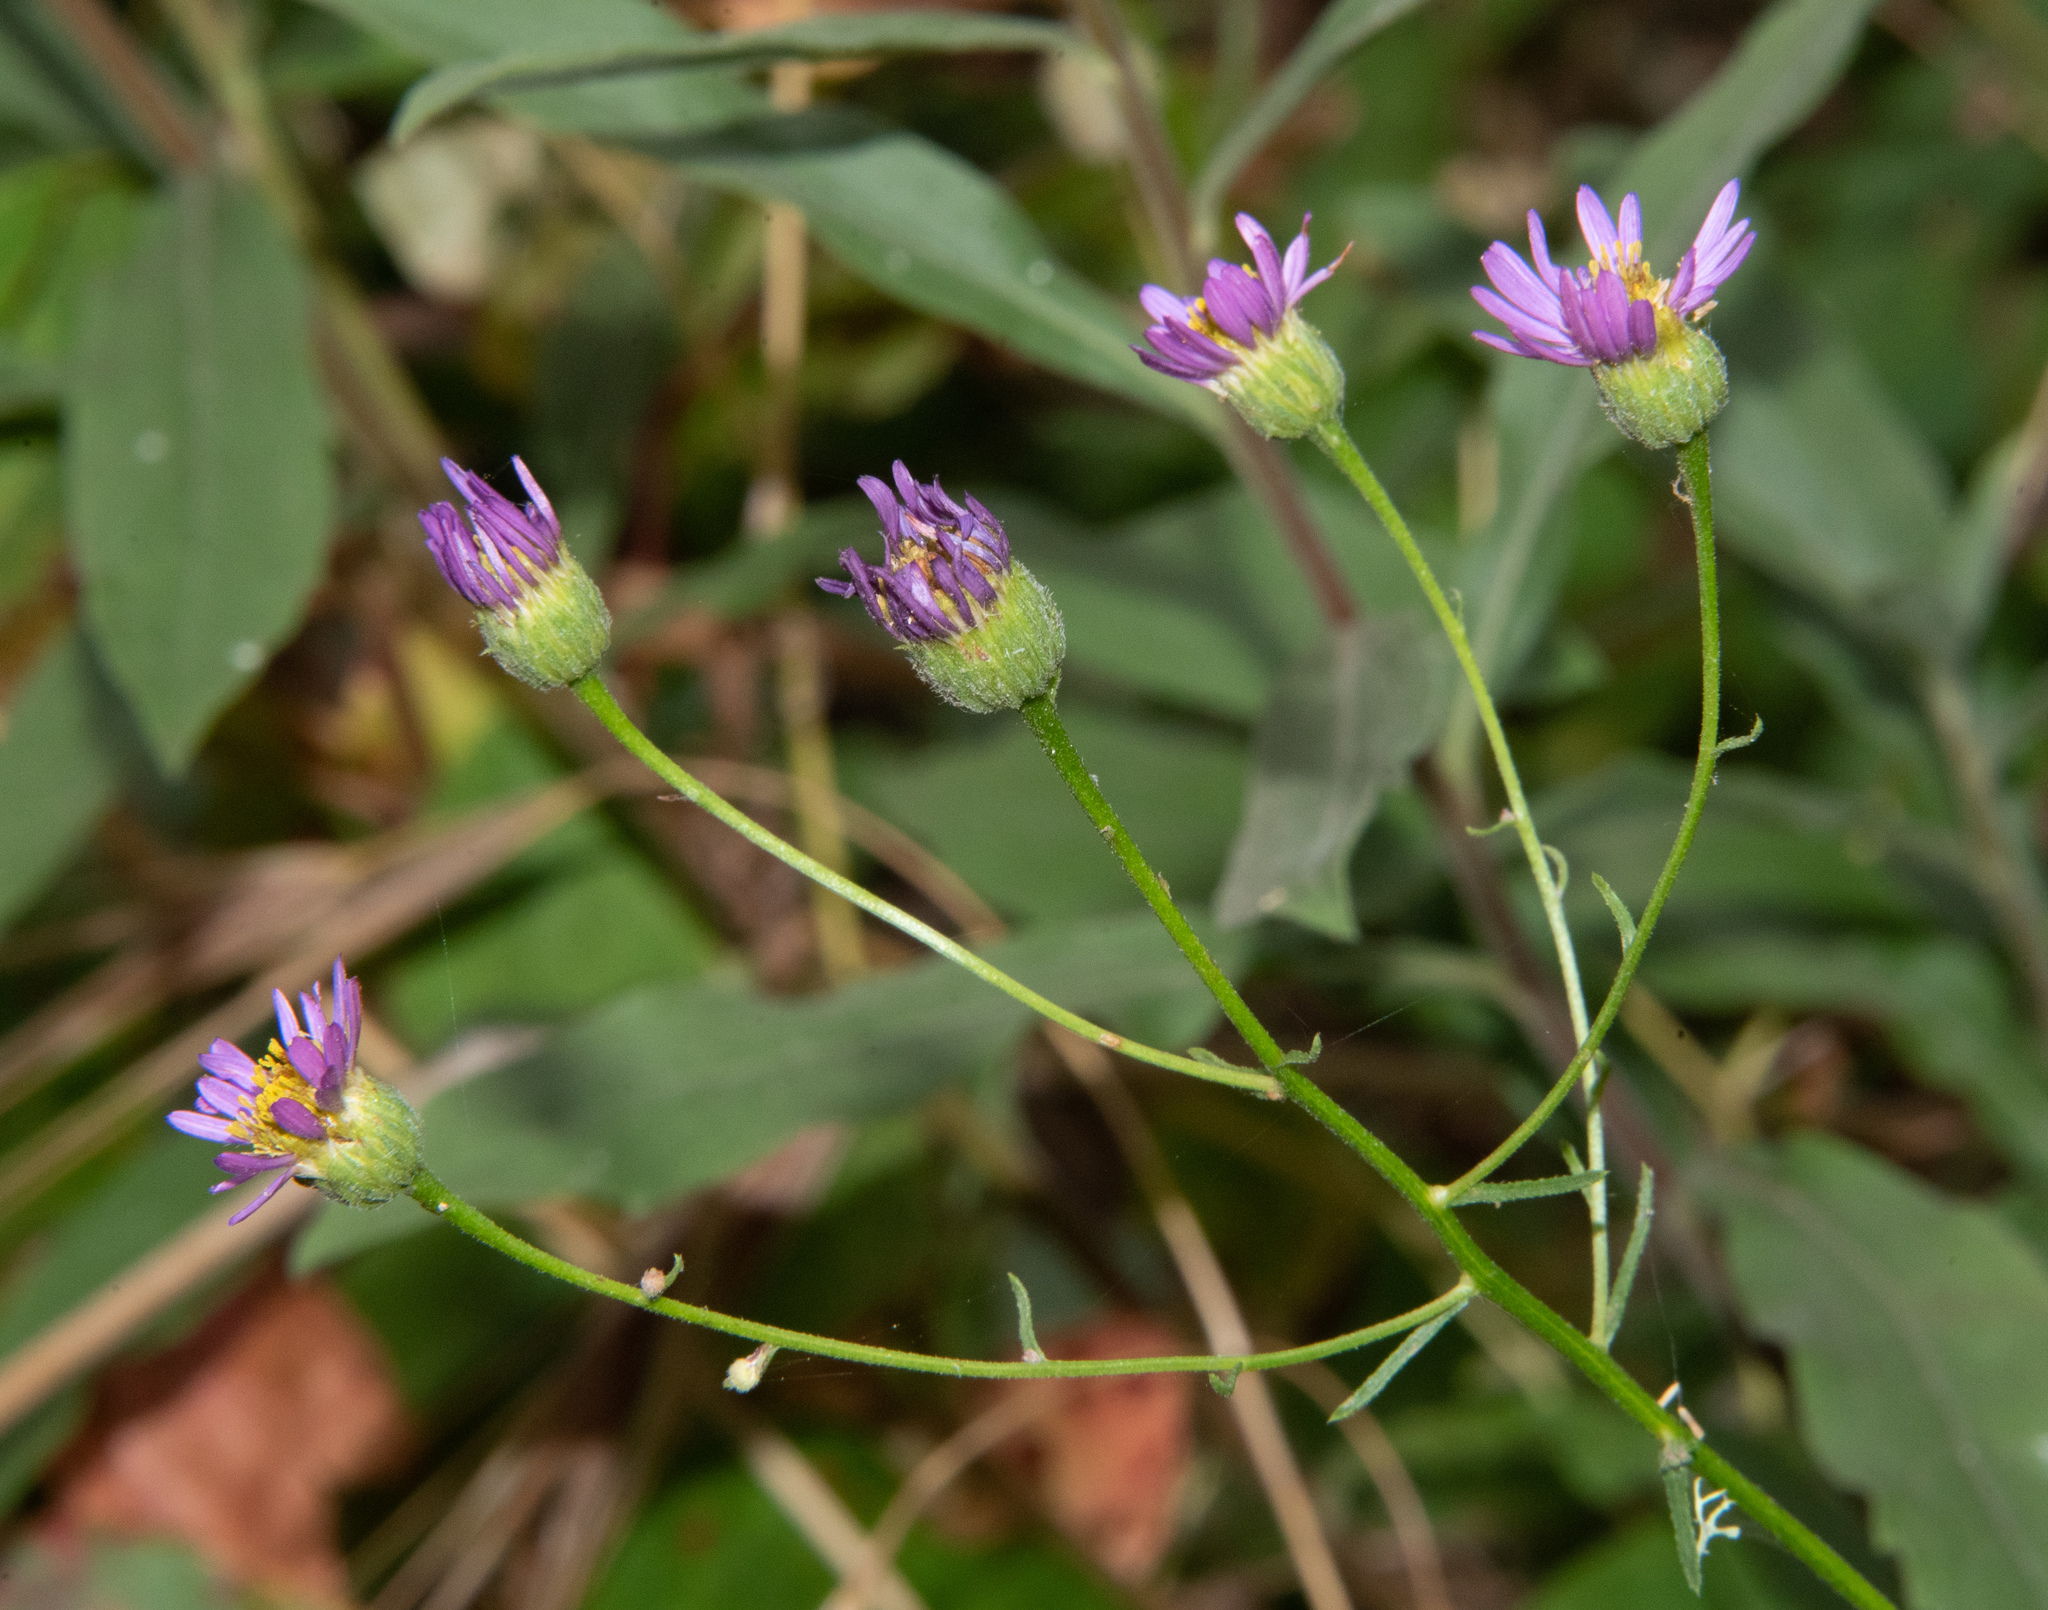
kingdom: Plantae
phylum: Tracheophyta
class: Magnoliopsida
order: Asterales
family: Asteraceae
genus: Erigeron
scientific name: Erigeron foliosus
